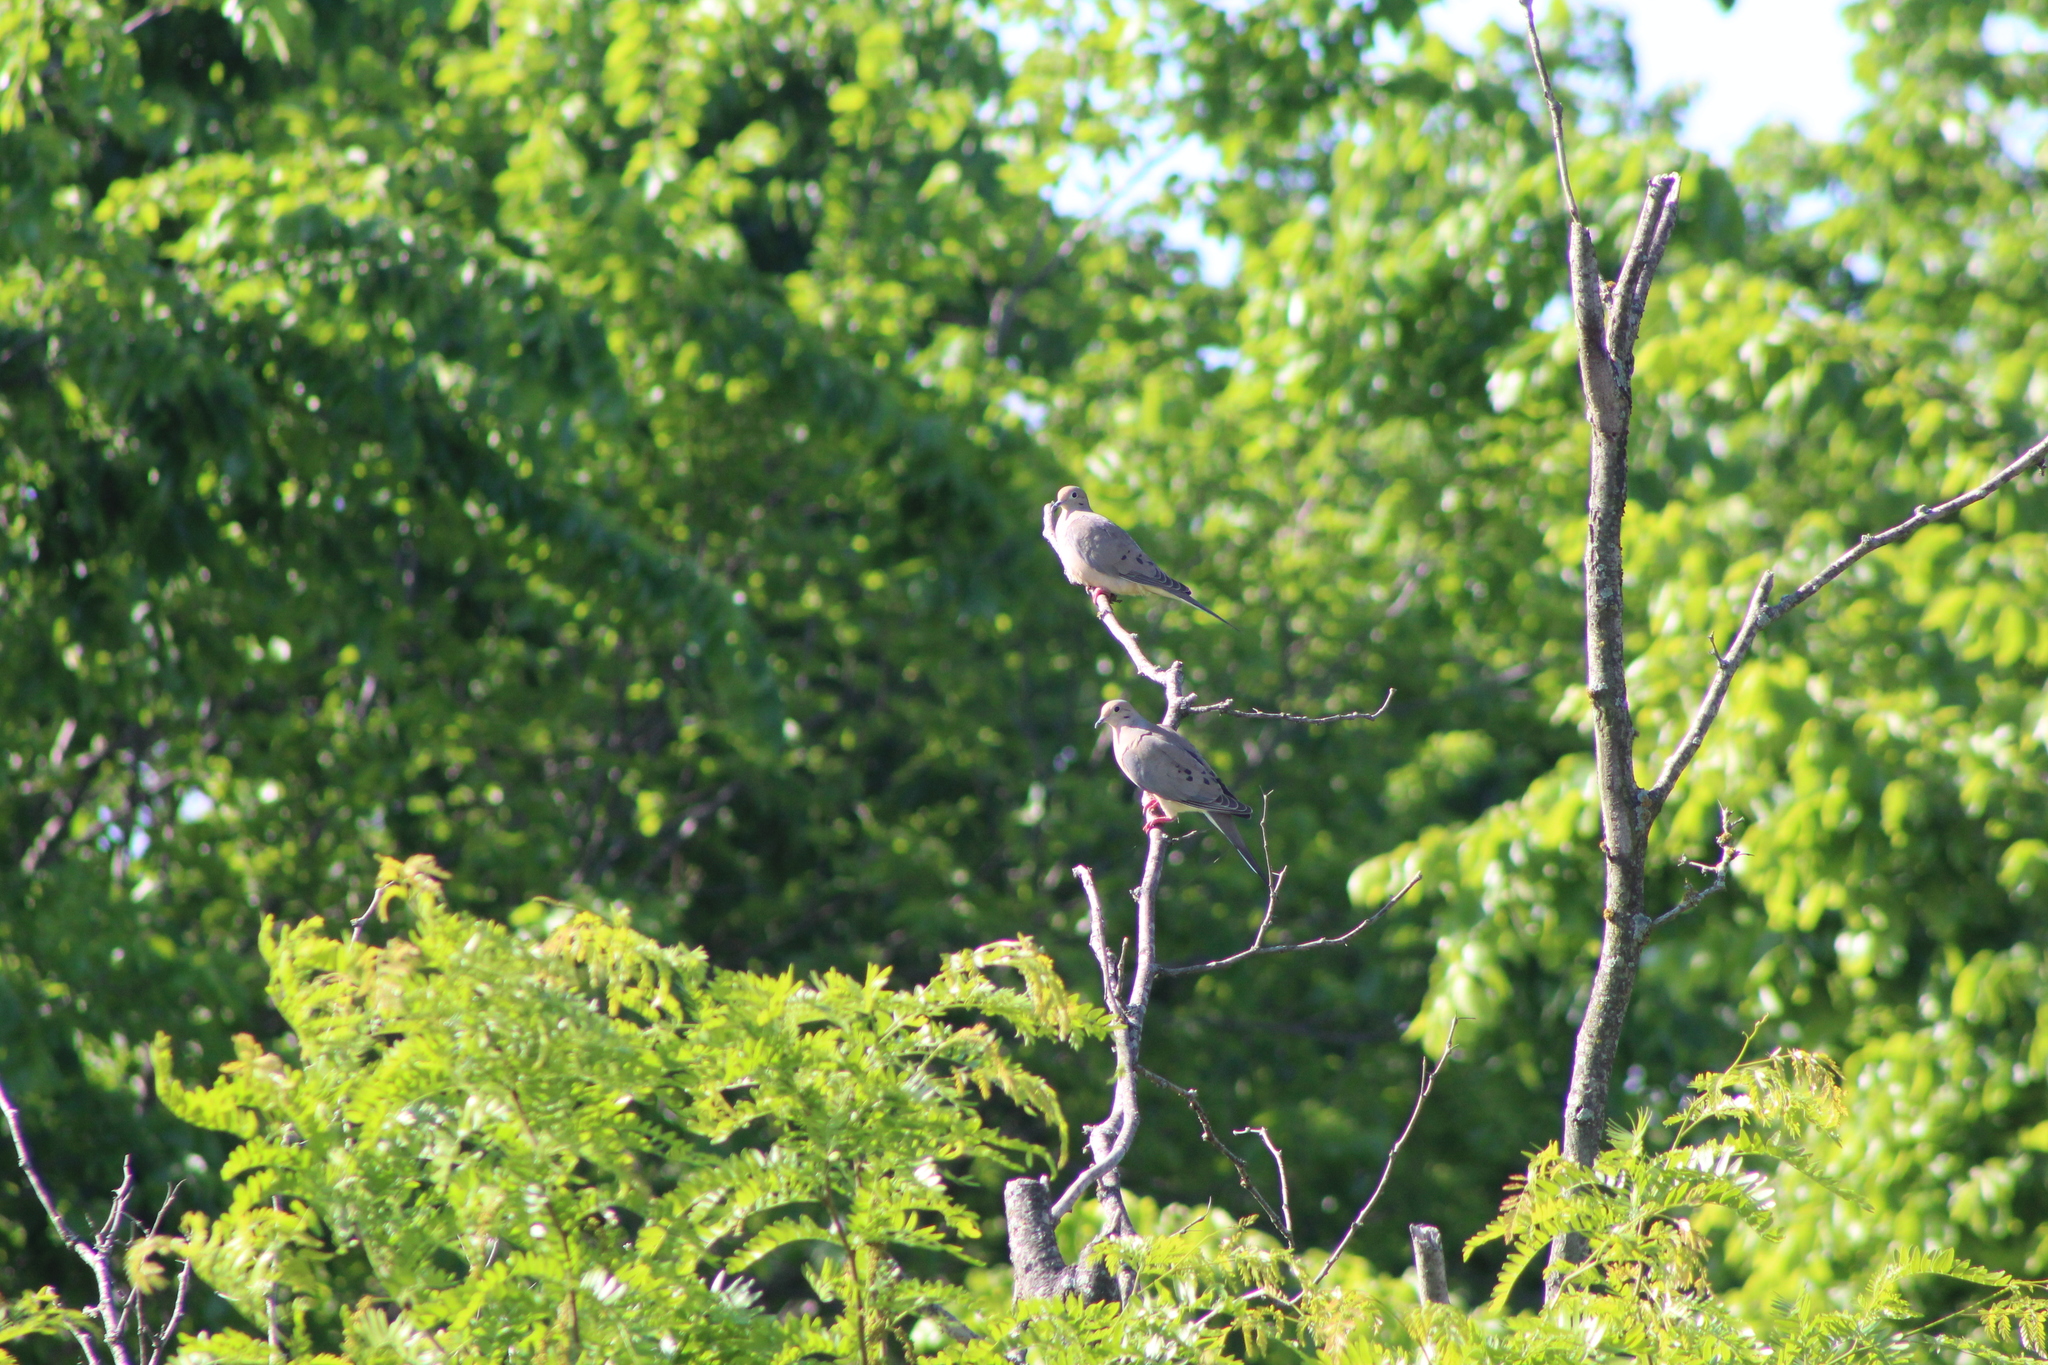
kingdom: Animalia
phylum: Chordata
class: Aves
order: Columbiformes
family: Columbidae
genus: Zenaida
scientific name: Zenaida macroura
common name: Mourning dove
